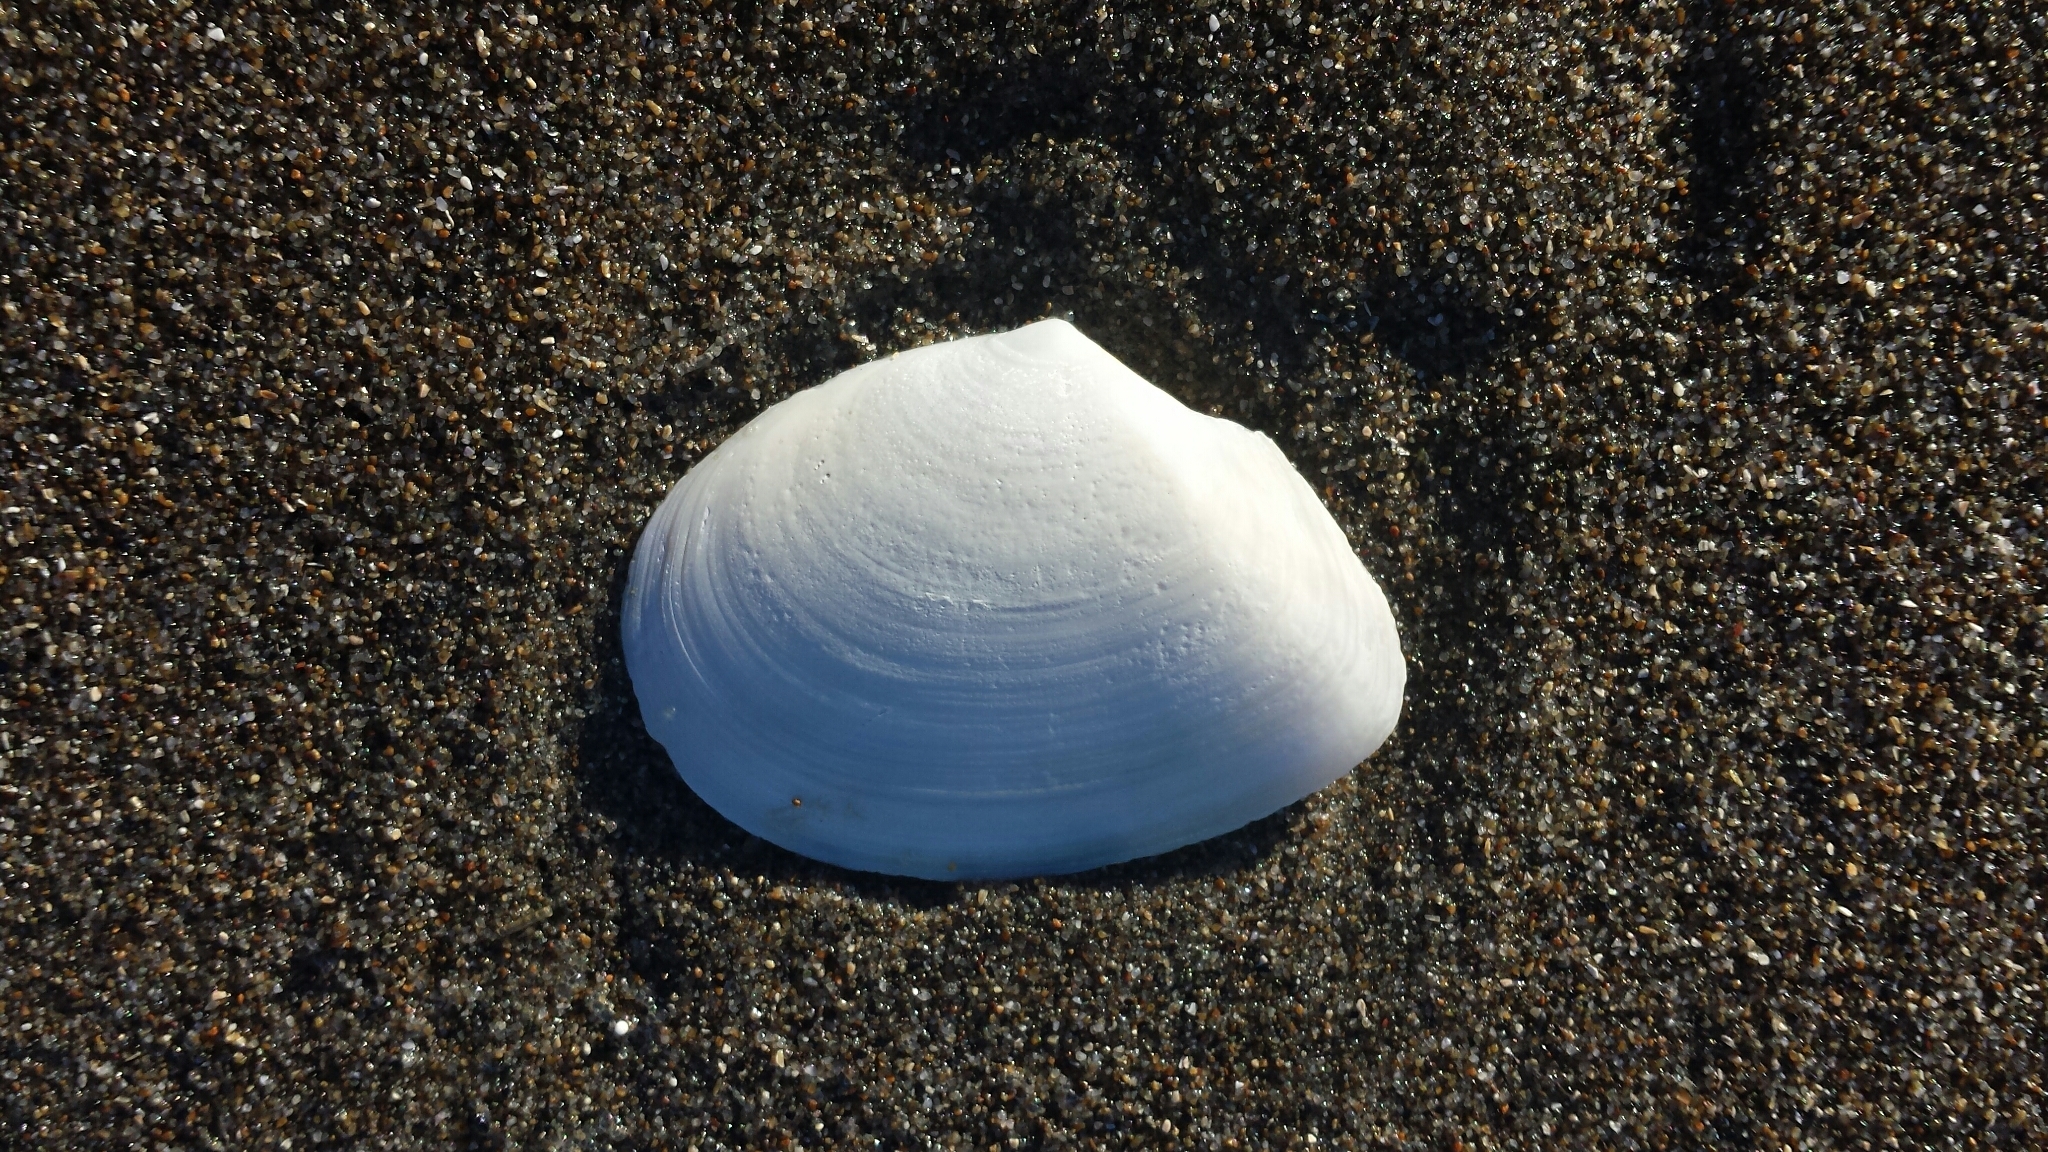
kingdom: Animalia
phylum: Mollusca
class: Bivalvia
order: Cardiida
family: Tellinidae
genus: Rexithaerus
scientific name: Rexithaerus secta
